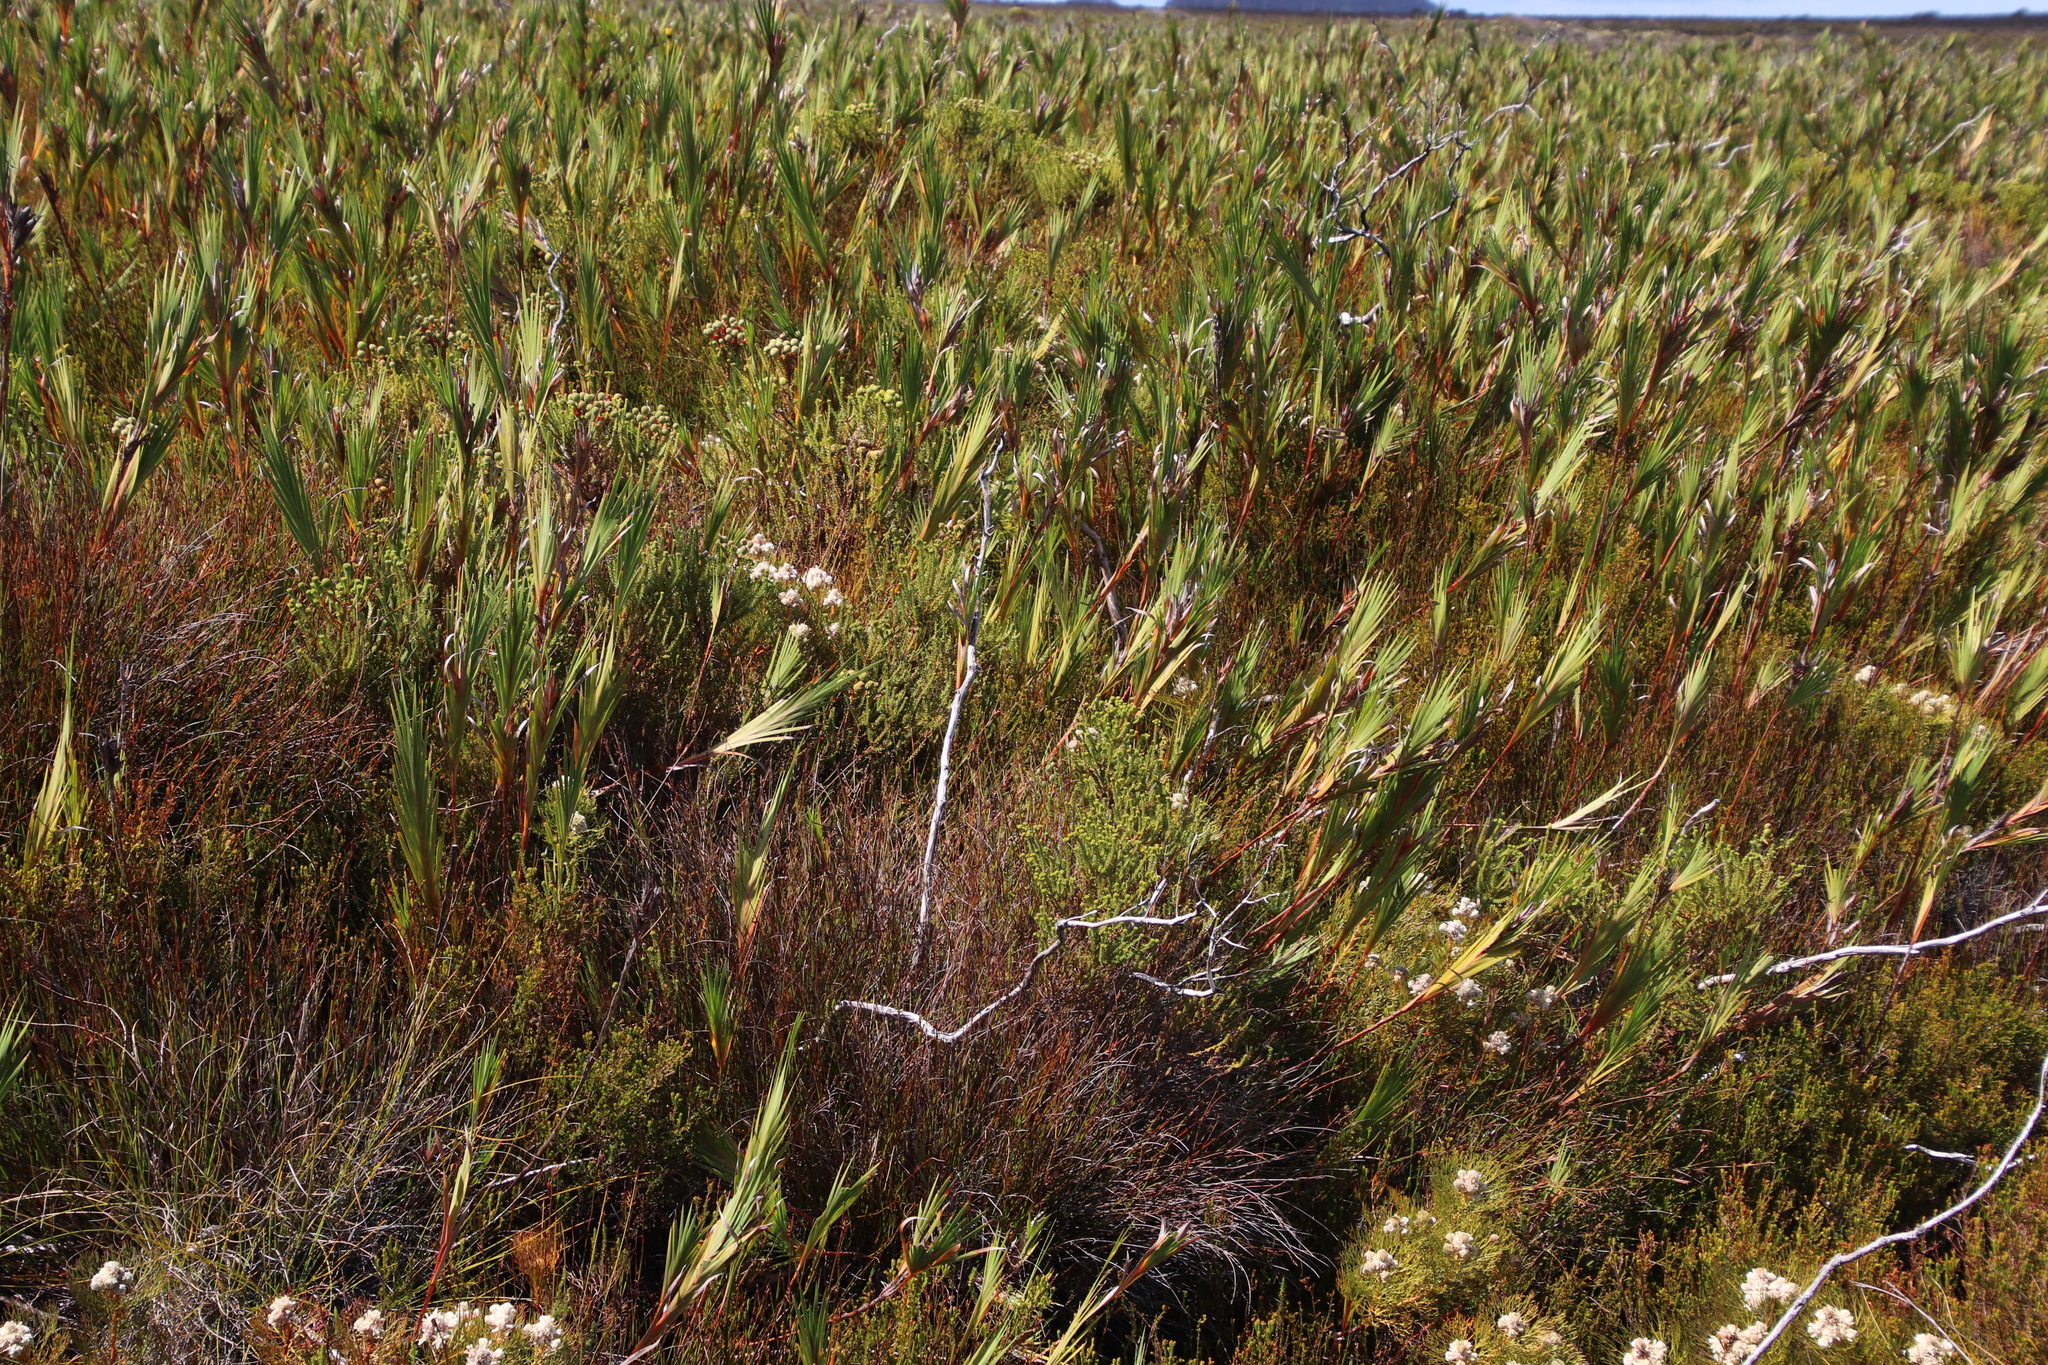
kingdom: Plantae
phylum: Tracheophyta
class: Magnoliopsida
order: Bruniales
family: Bruniaceae
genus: Berzelia
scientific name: Berzelia abrotanoides
